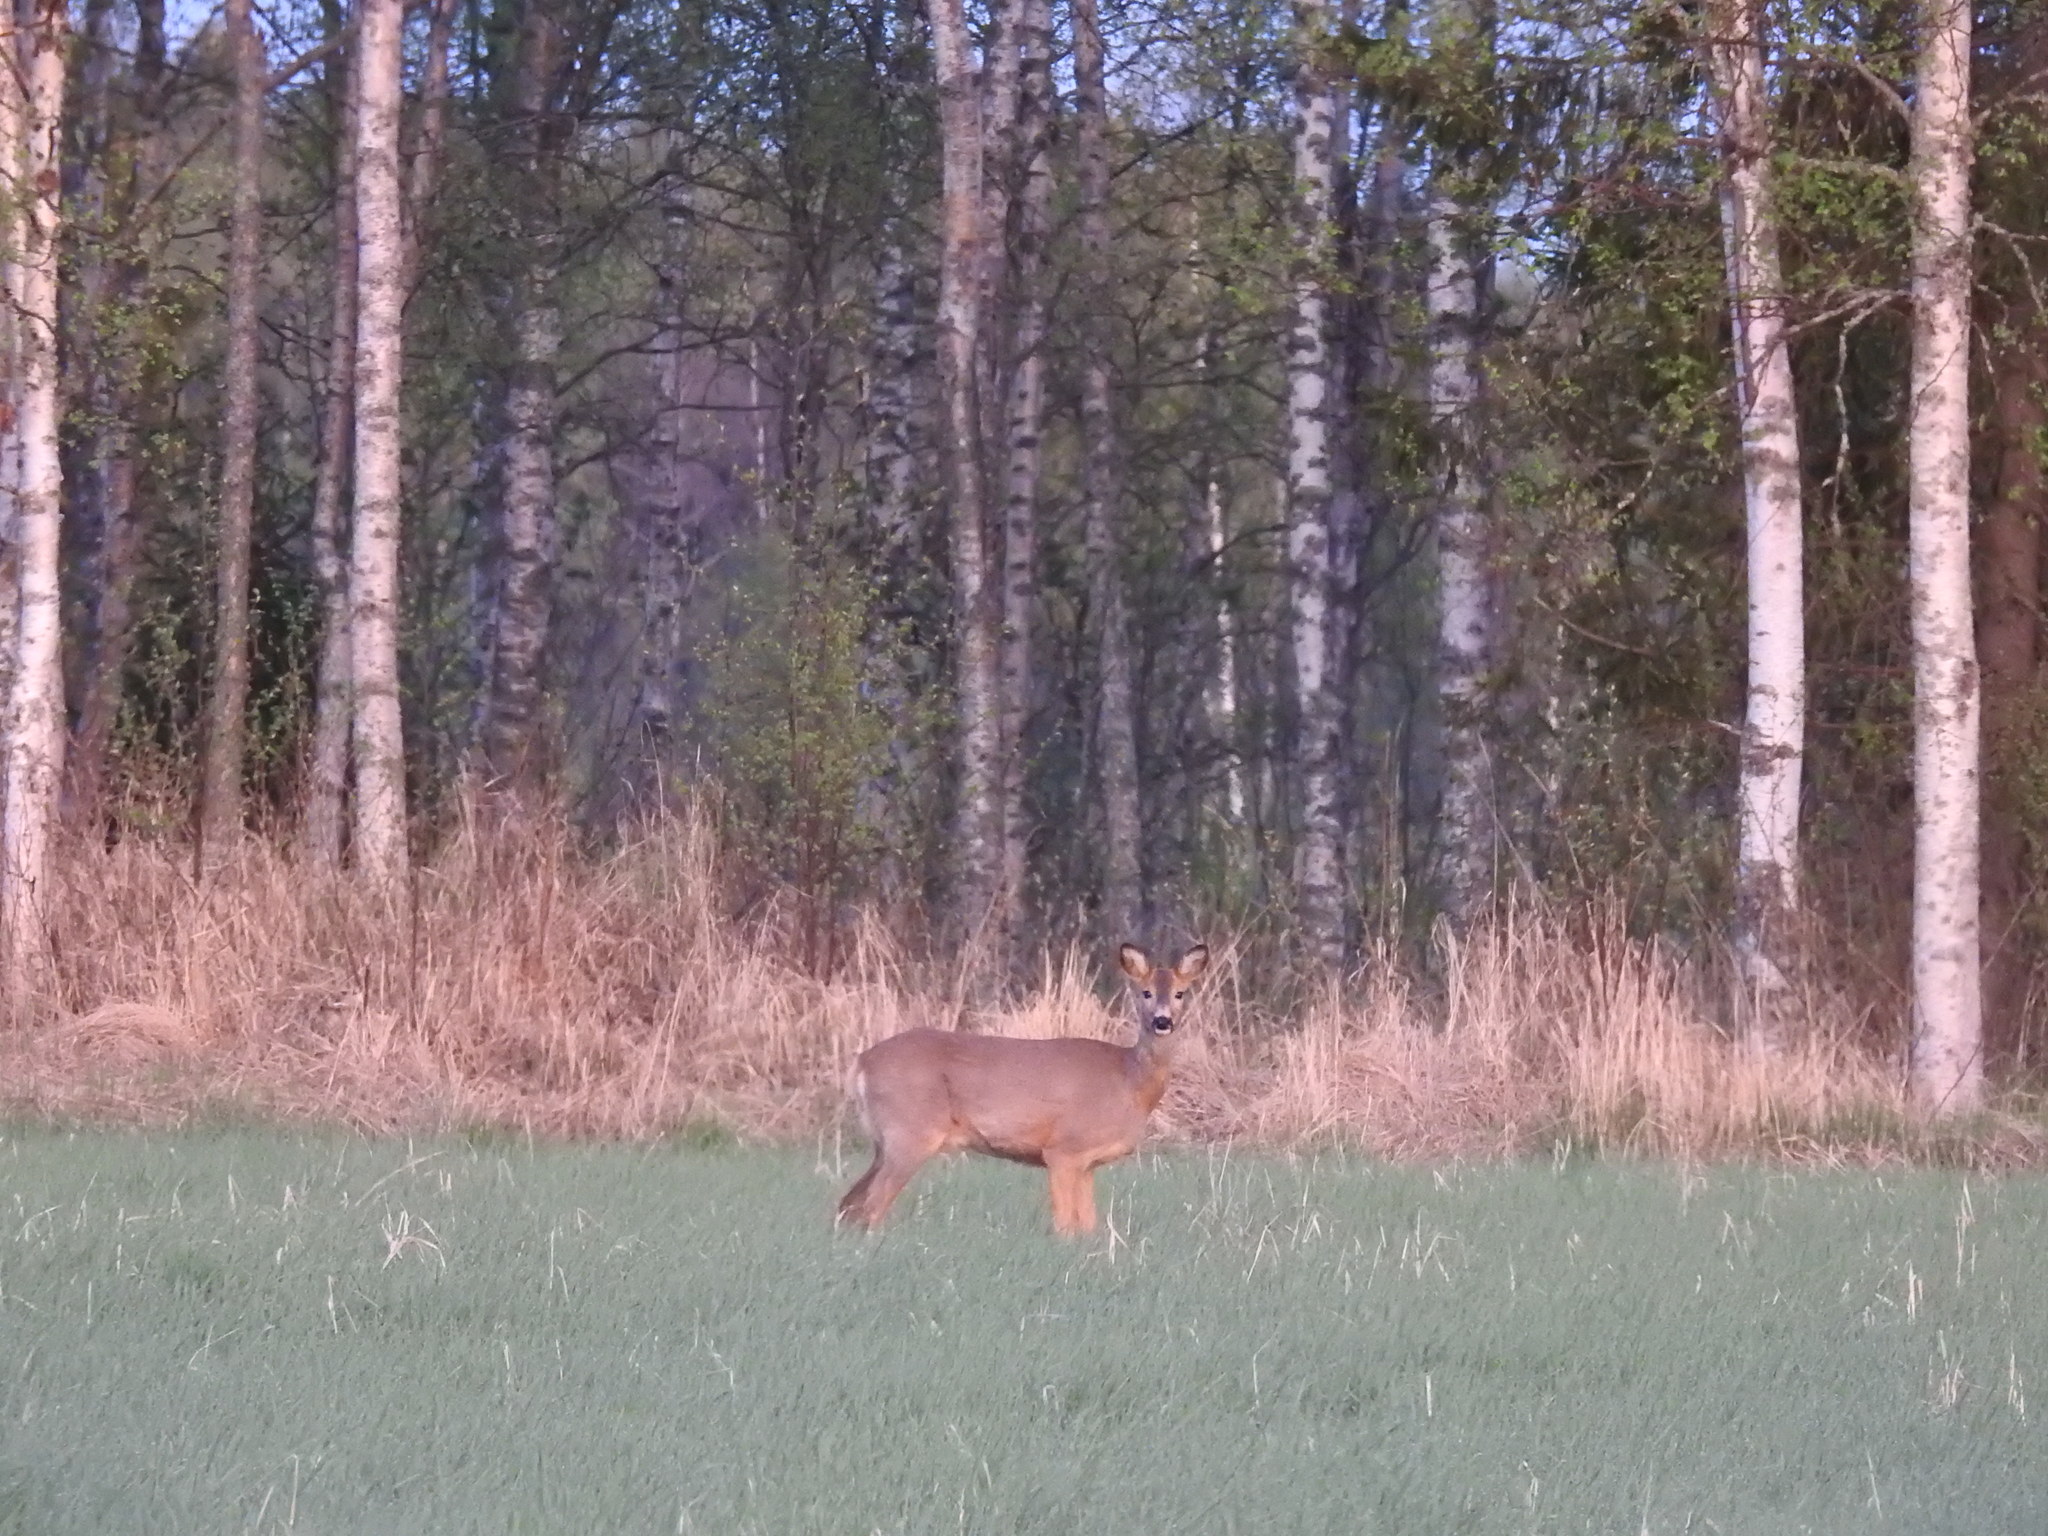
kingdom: Animalia
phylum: Chordata
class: Mammalia
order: Artiodactyla
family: Cervidae
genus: Capreolus
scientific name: Capreolus capreolus
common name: Western roe deer
